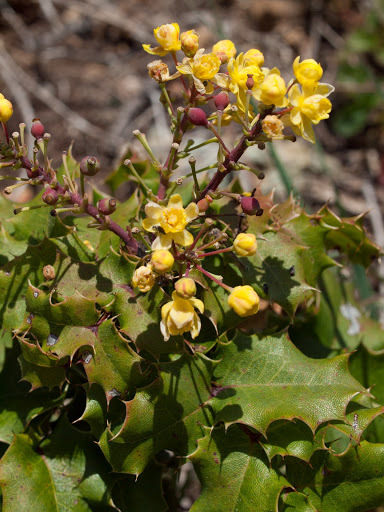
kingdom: Plantae
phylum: Tracheophyta
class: Magnoliopsida
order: Ranunculales
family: Berberidaceae
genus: Mahonia
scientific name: Mahonia
